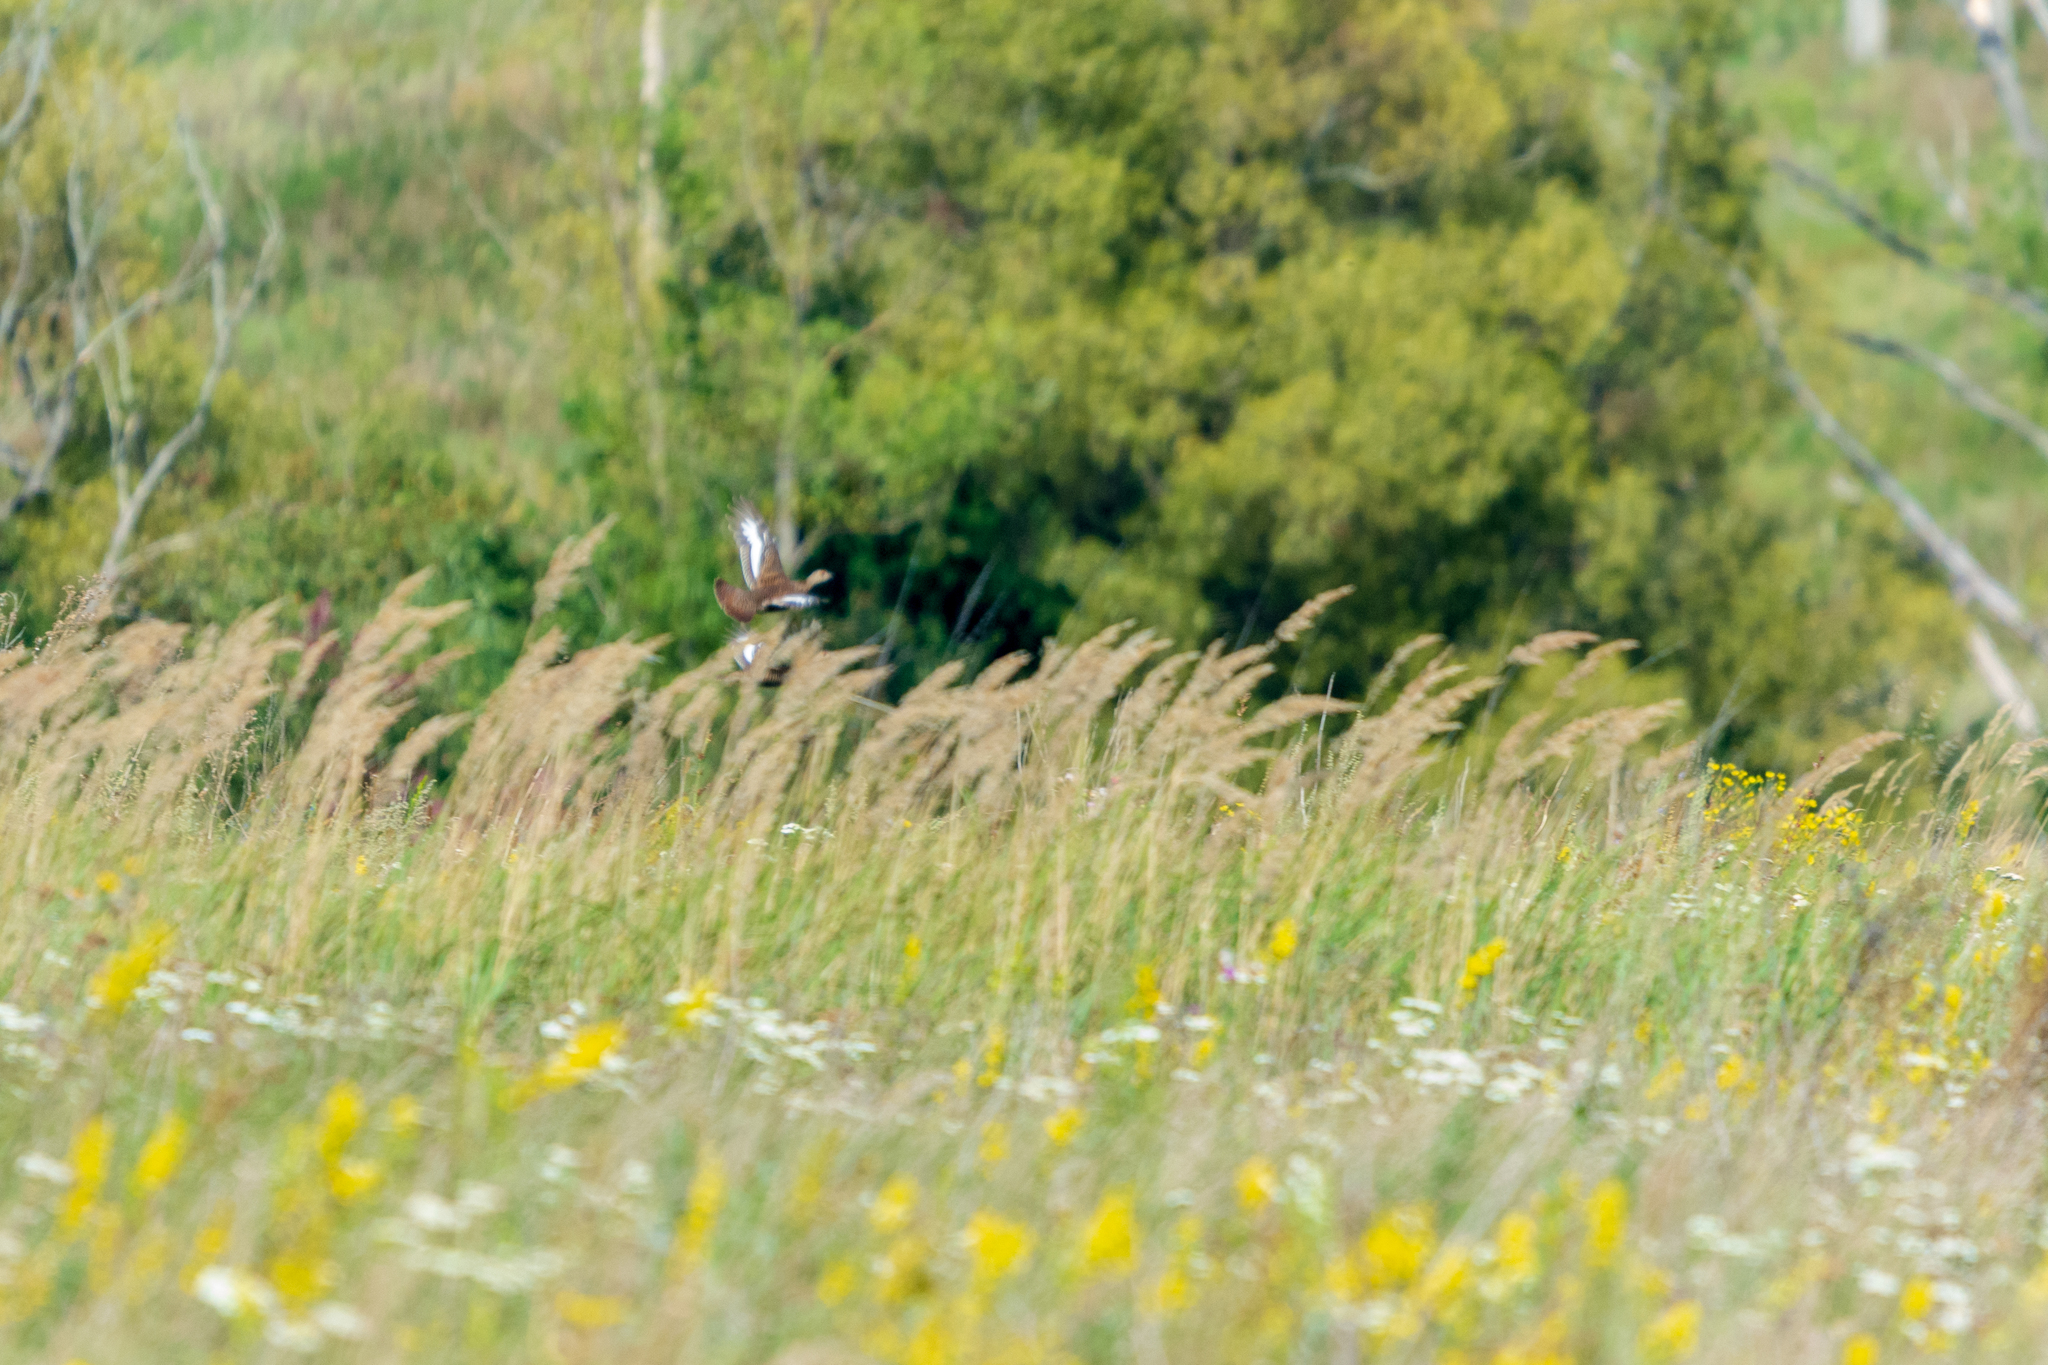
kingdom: Animalia
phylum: Chordata
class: Aves
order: Galliformes
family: Phasianidae
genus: Lyrurus
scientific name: Lyrurus tetrix
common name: Black grouse
